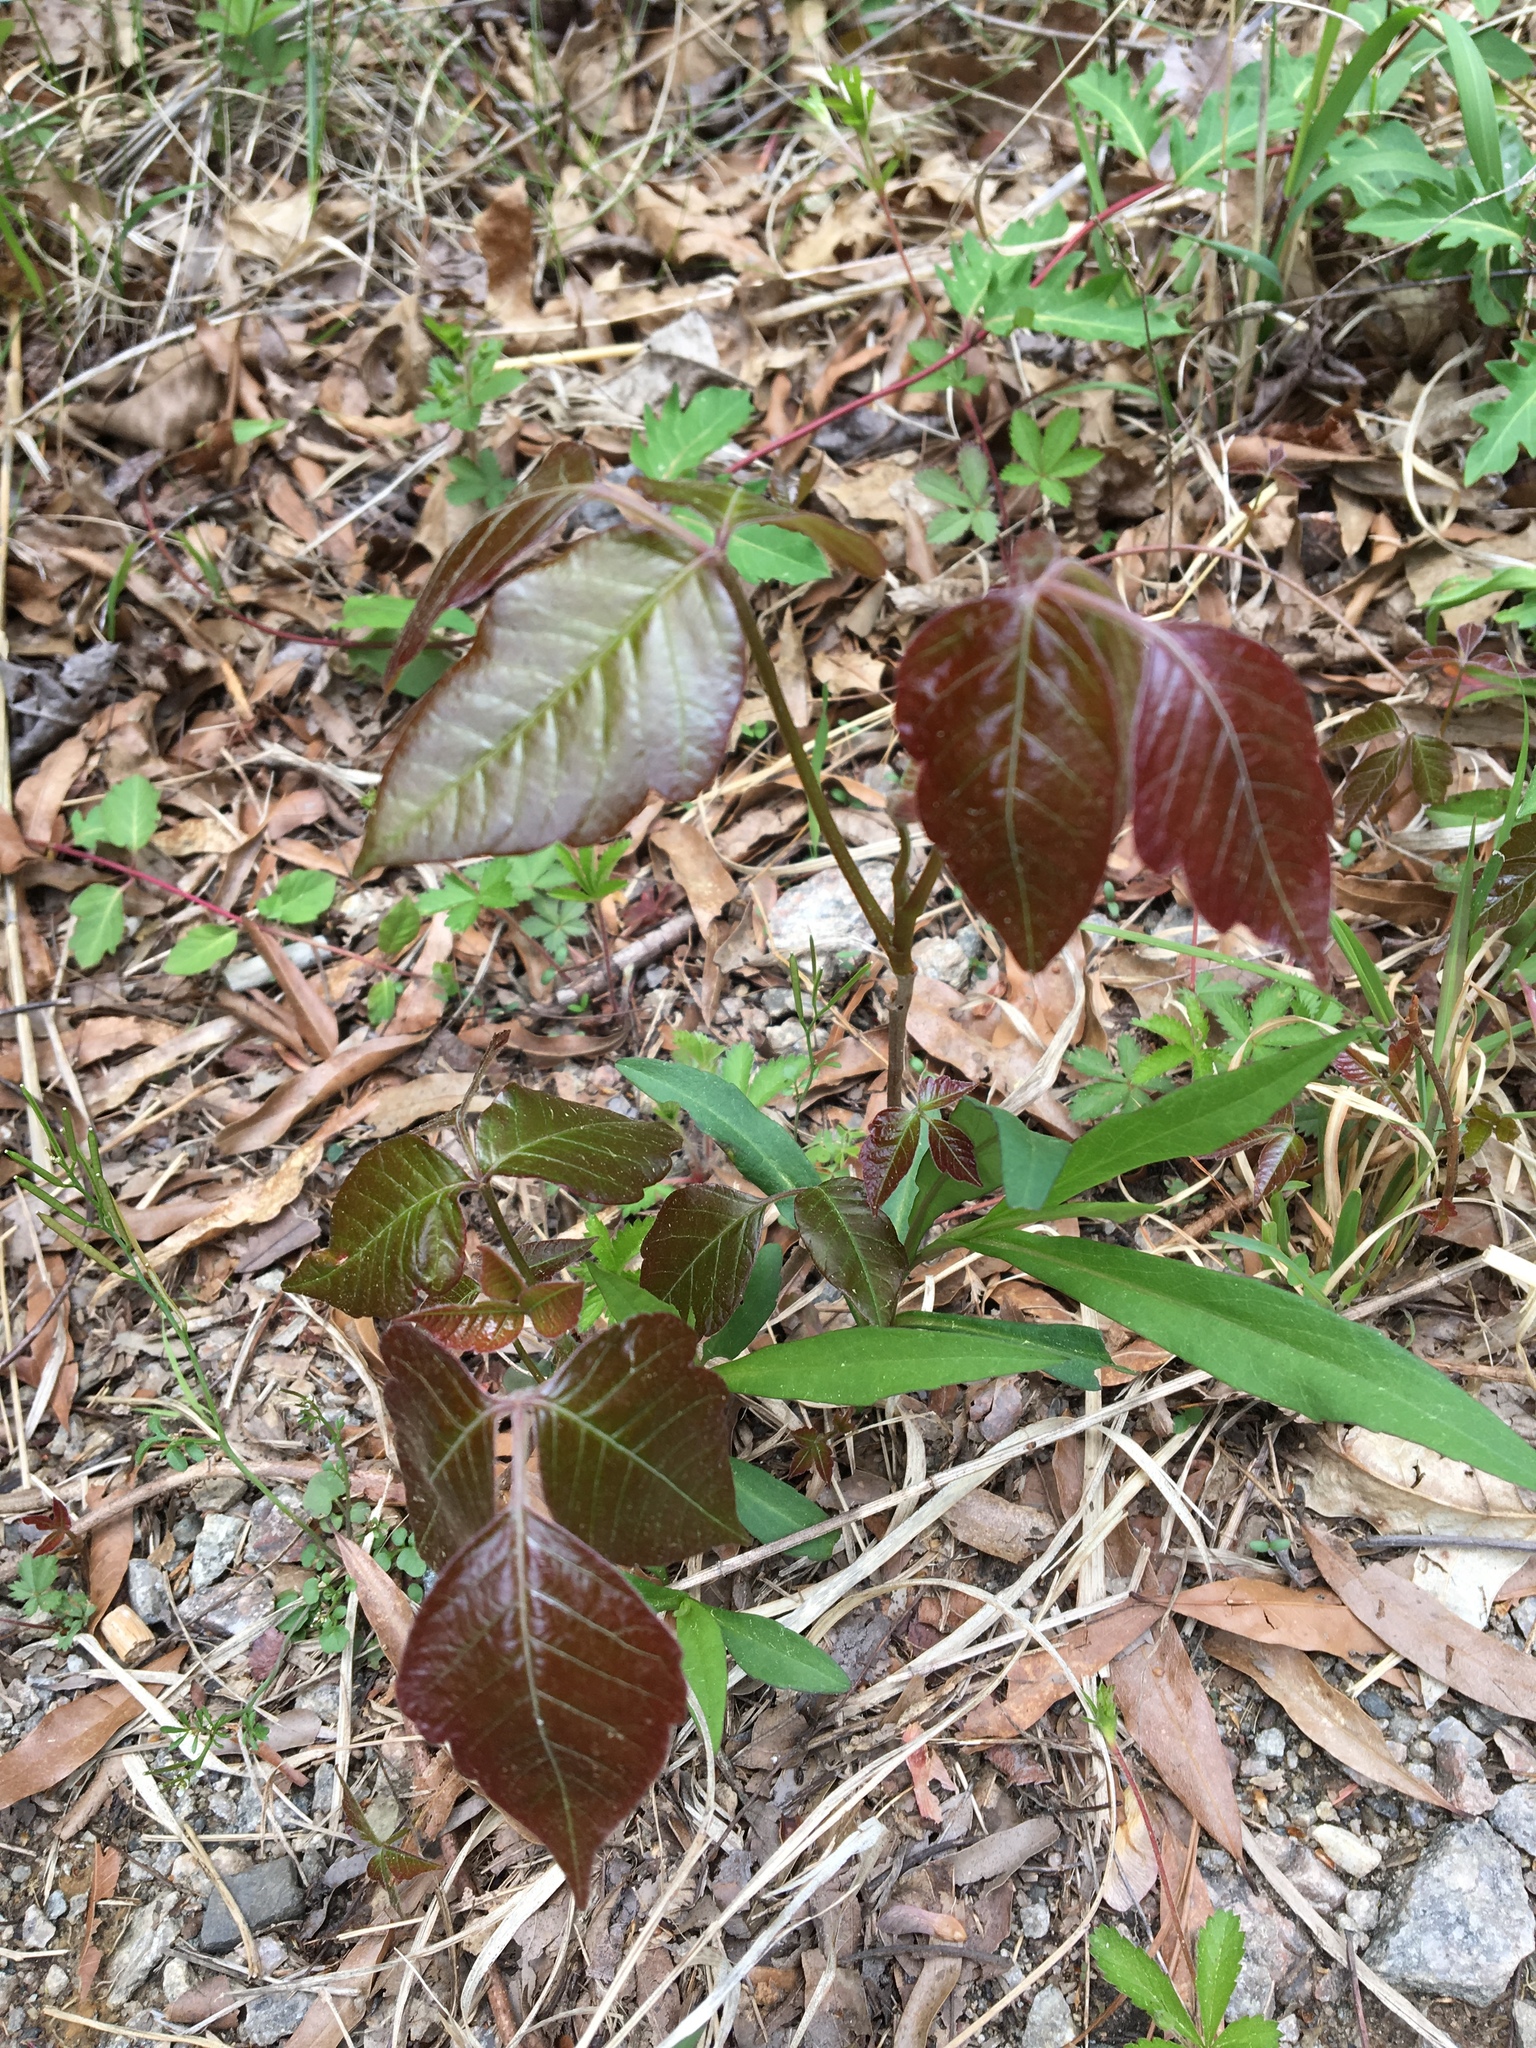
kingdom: Plantae
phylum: Tracheophyta
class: Magnoliopsida
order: Sapindales
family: Anacardiaceae
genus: Toxicodendron
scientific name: Toxicodendron radicans
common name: Poison ivy
